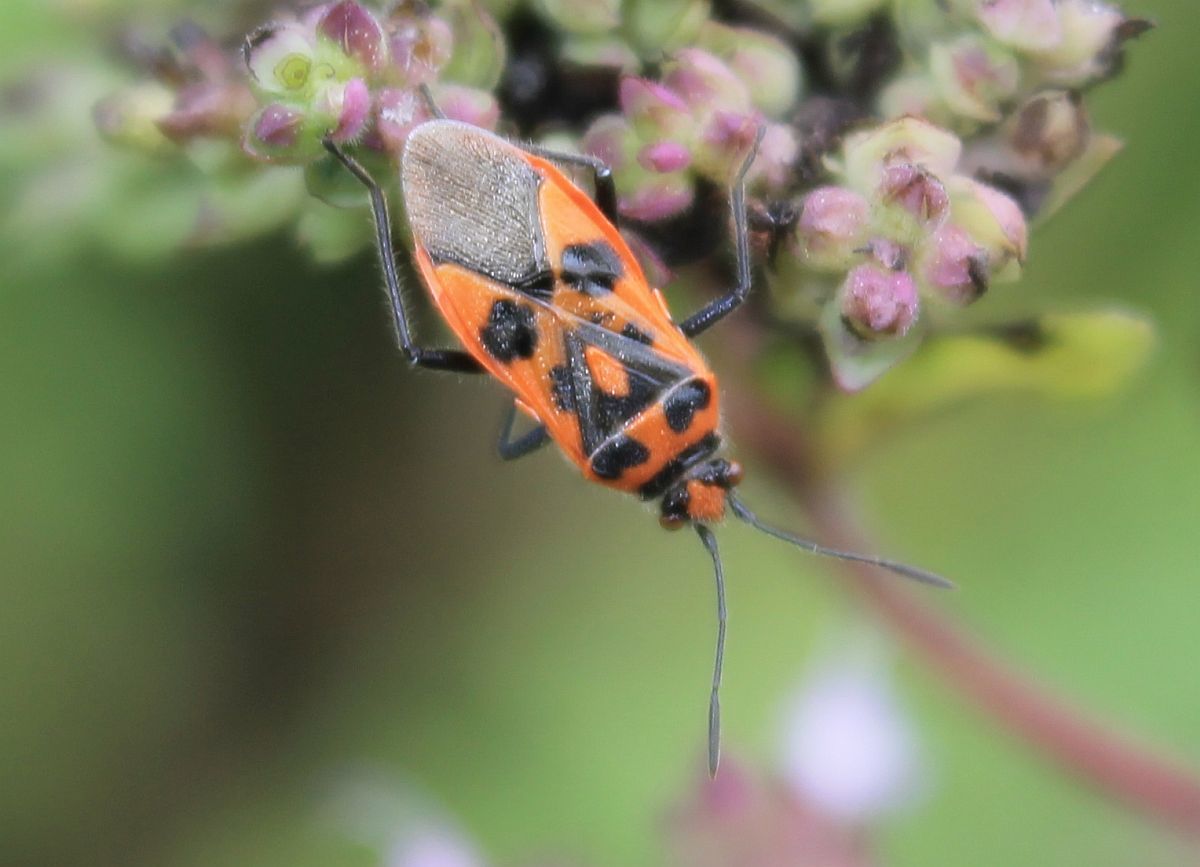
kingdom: Animalia
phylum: Arthropoda
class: Insecta
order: Hemiptera
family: Rhopalidae
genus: Corizus
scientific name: Corizus hyoscyami
